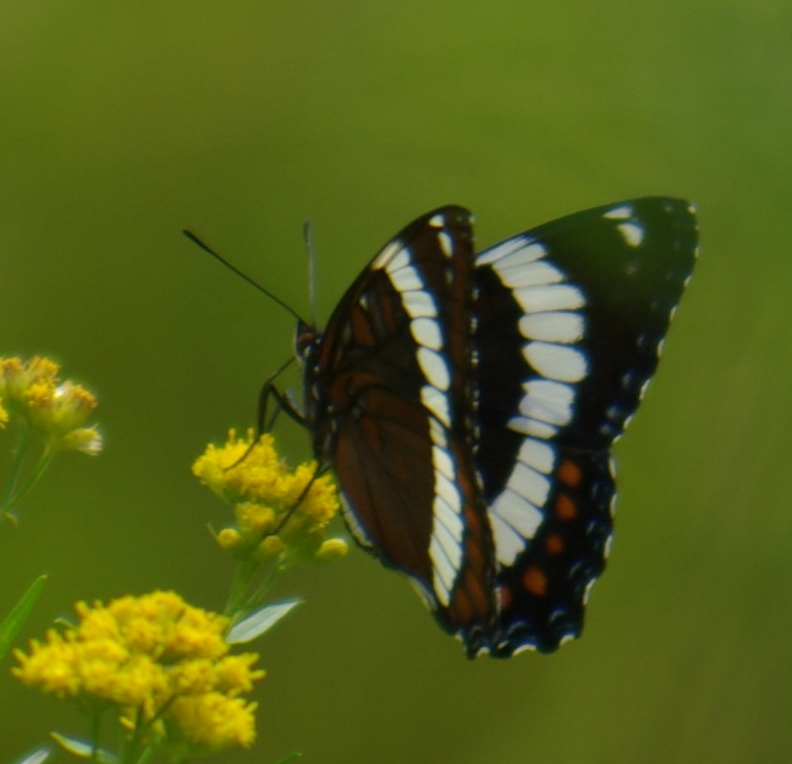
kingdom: Animalia
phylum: Arthropoda
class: Insecta
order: Lepidoptera
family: Nymphalidae
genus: Limenitis
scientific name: Limenitis arthemis
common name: Red-spotted admiral
